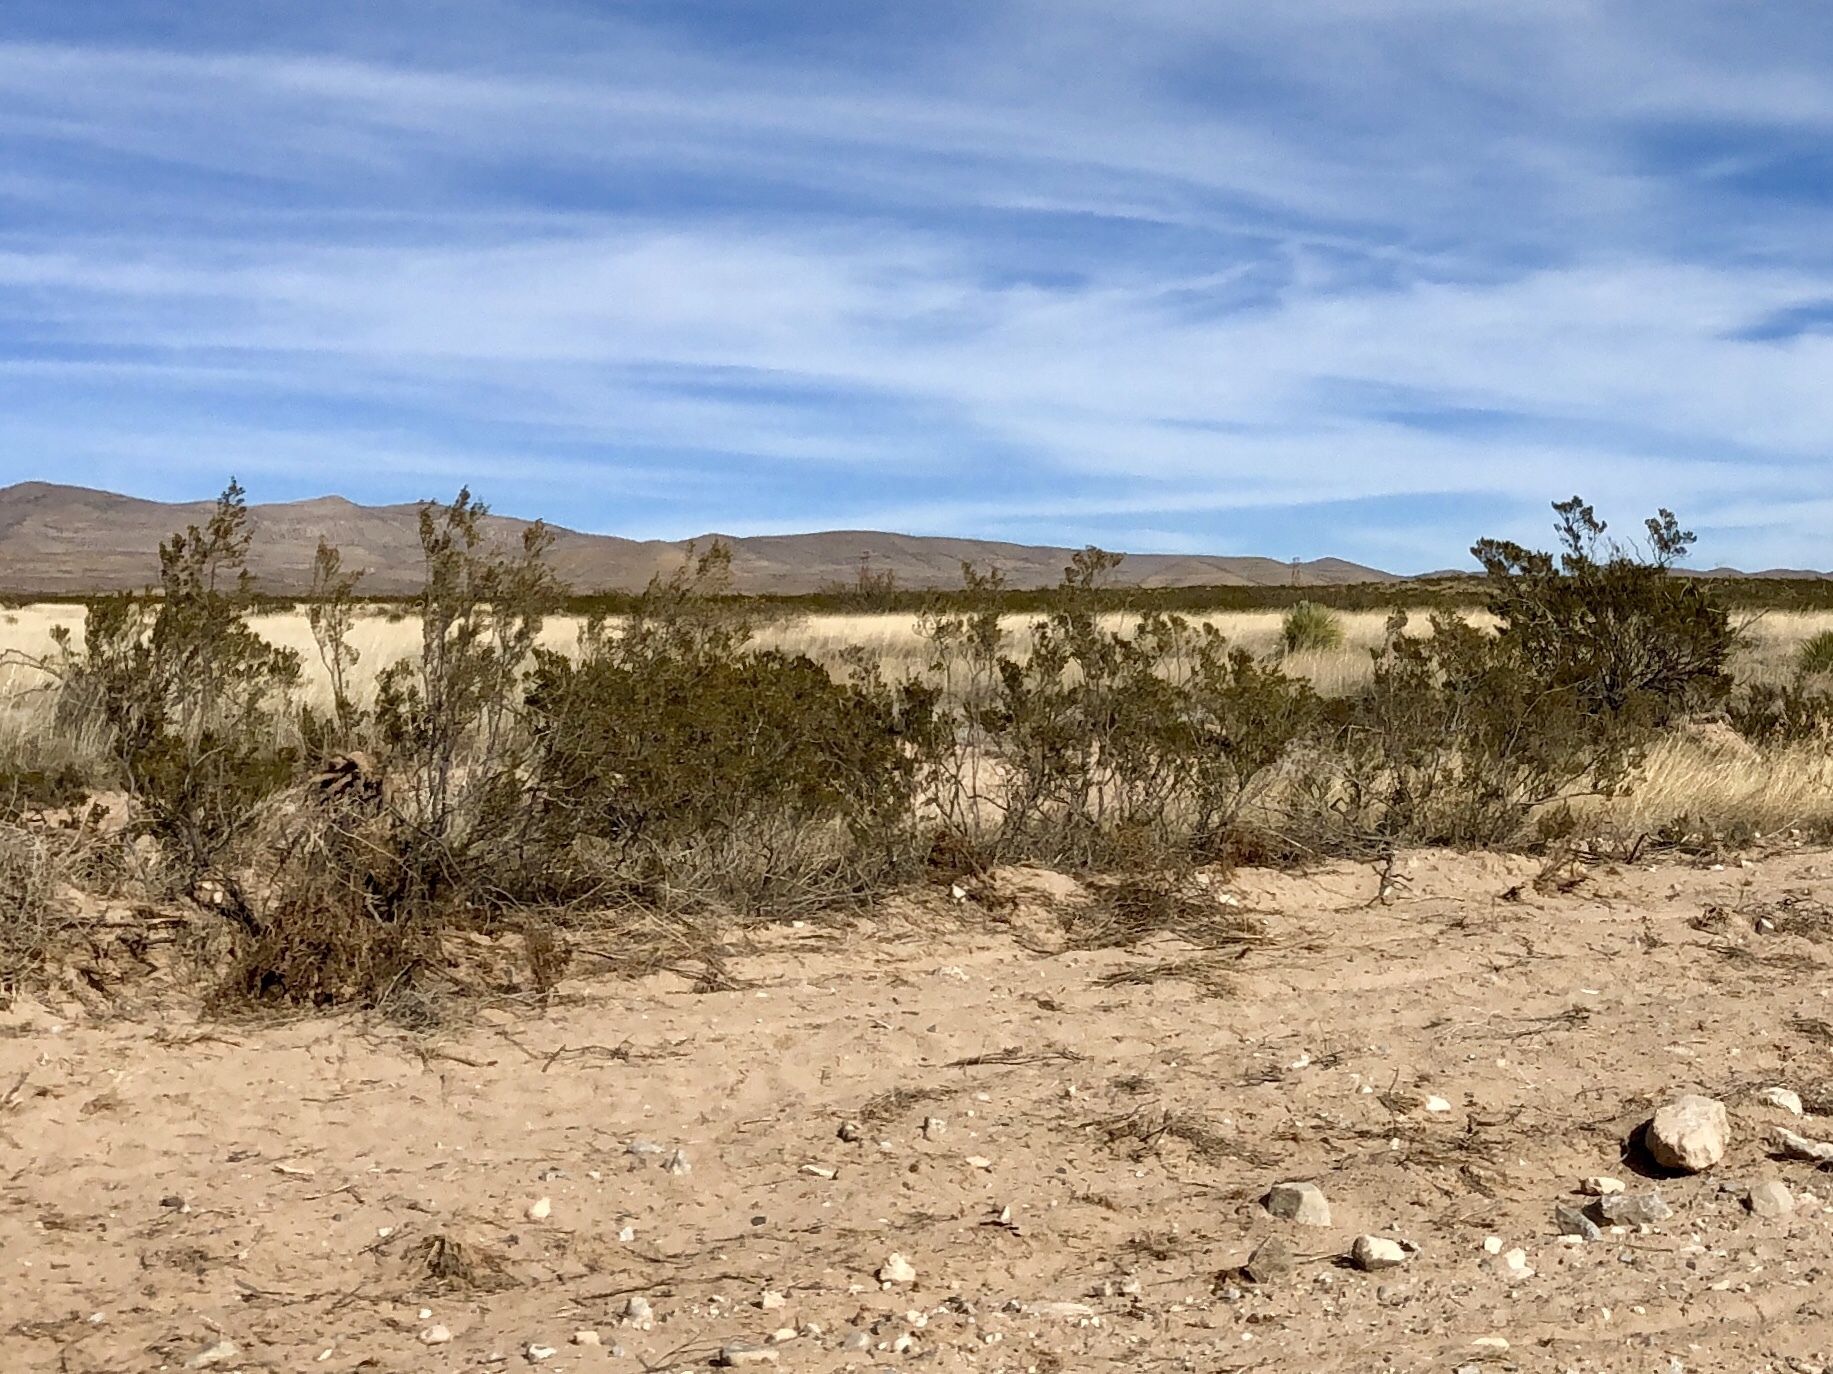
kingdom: Plantae
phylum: Tracheophyta
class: Magnoliopsida
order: Zygophyllales
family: Zygophyllaceae
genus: Larrea
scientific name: Larrea tridentata
